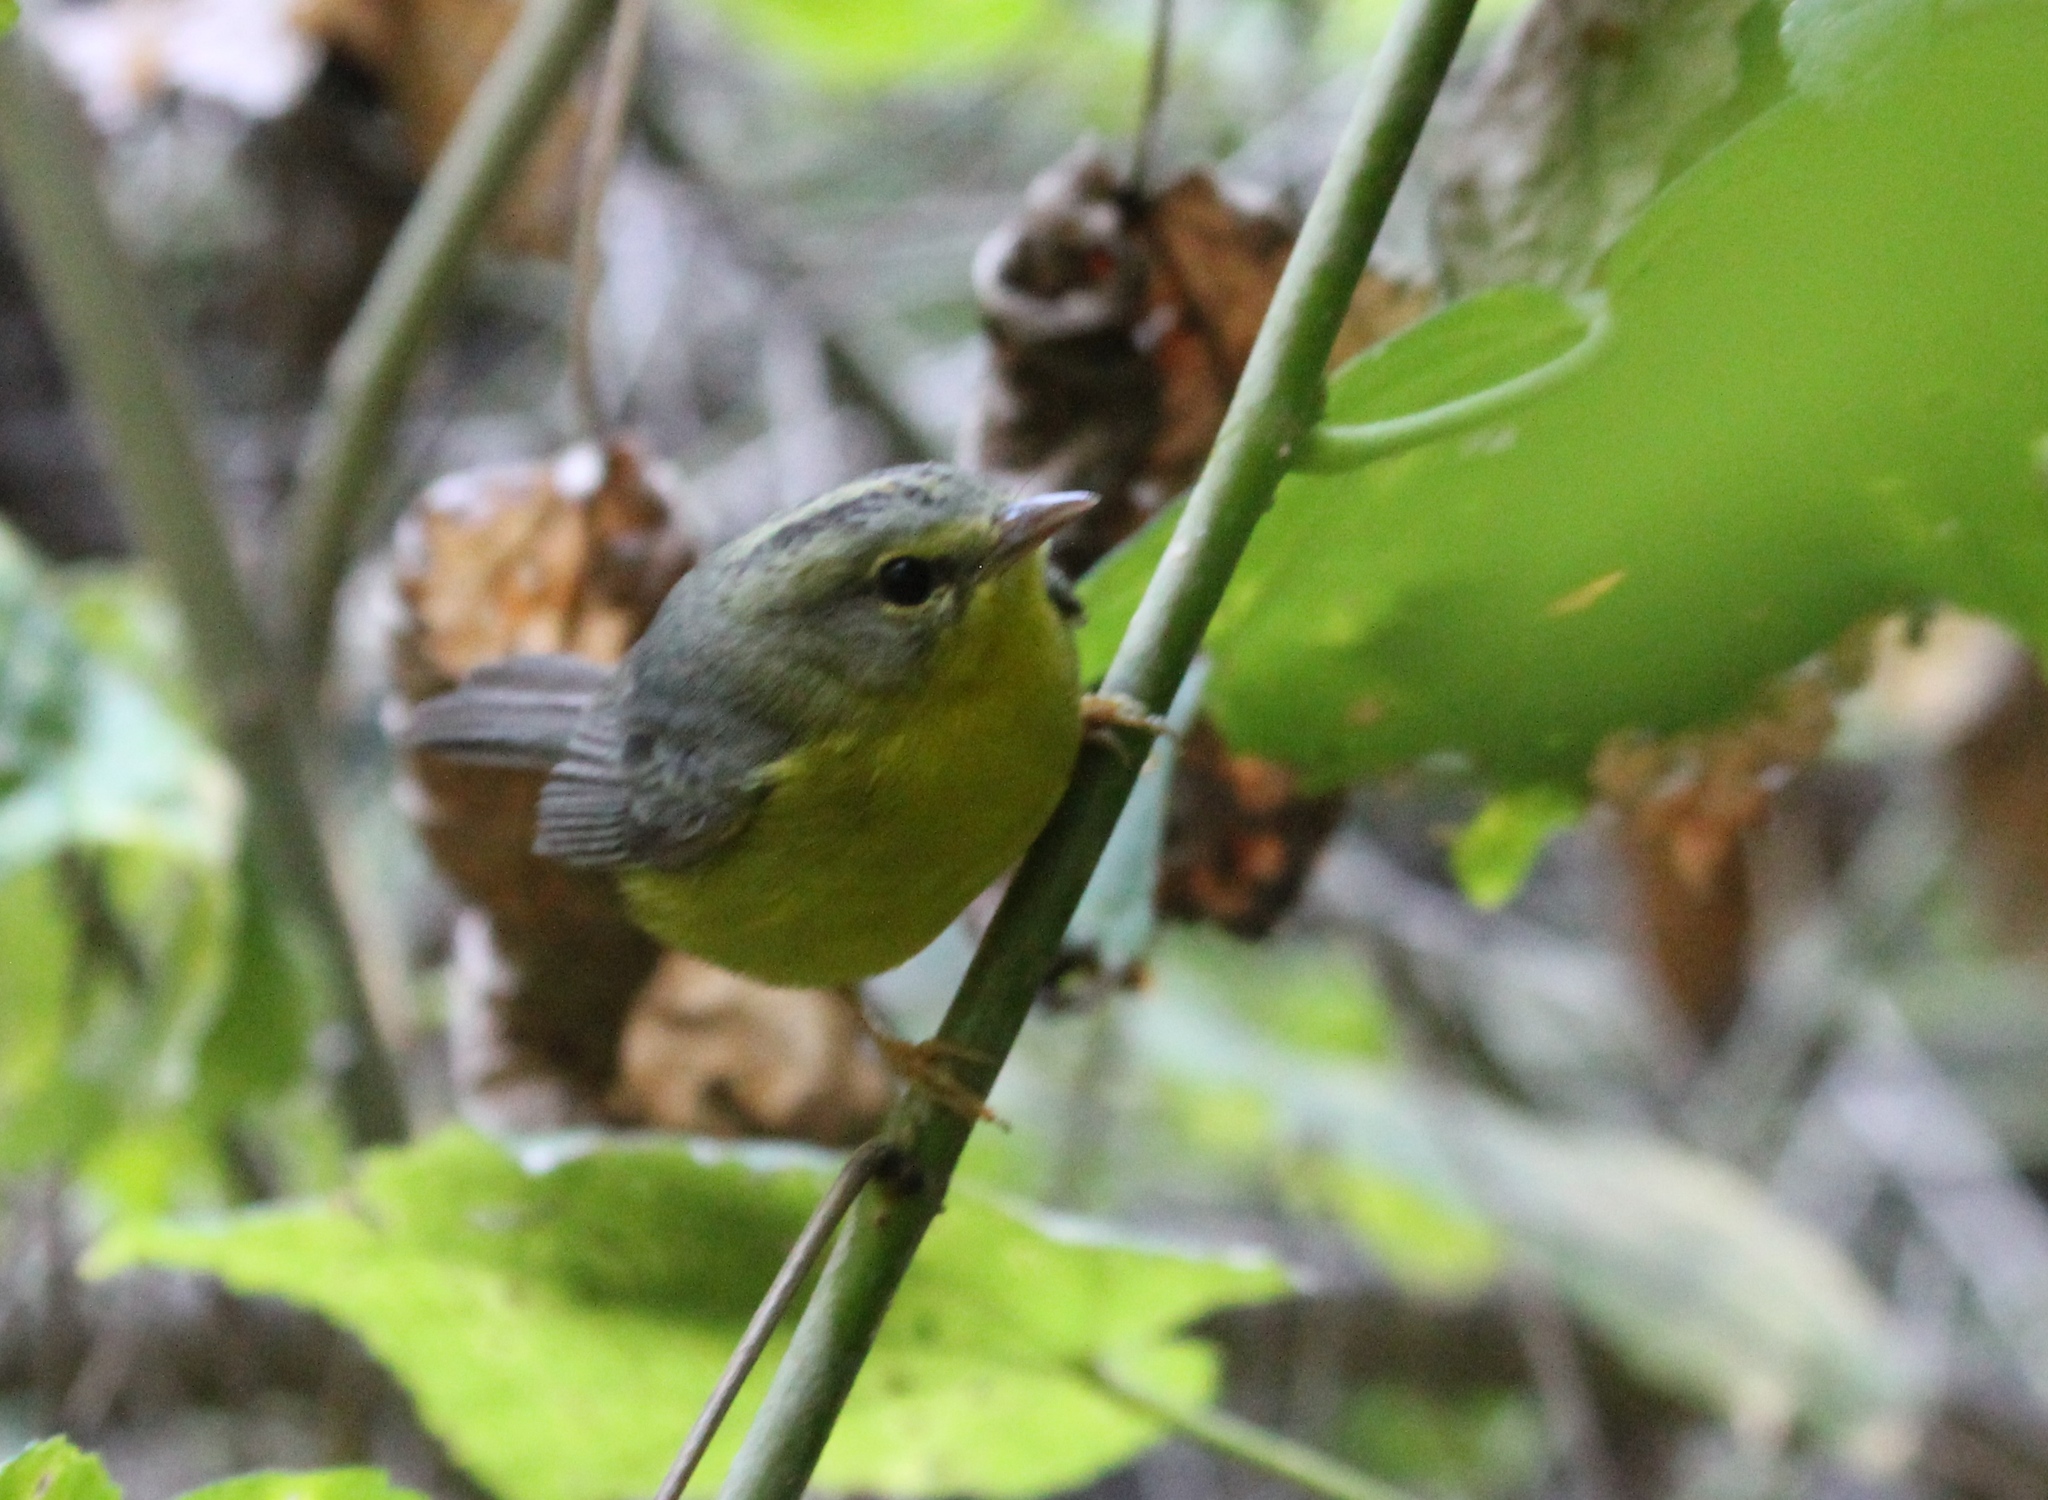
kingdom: Animalia
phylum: Chordata
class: Aves
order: Passeriformes
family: Parulidae
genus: Basileuterus
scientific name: Basileuterus culicivorus
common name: Golden-crowned warbler
